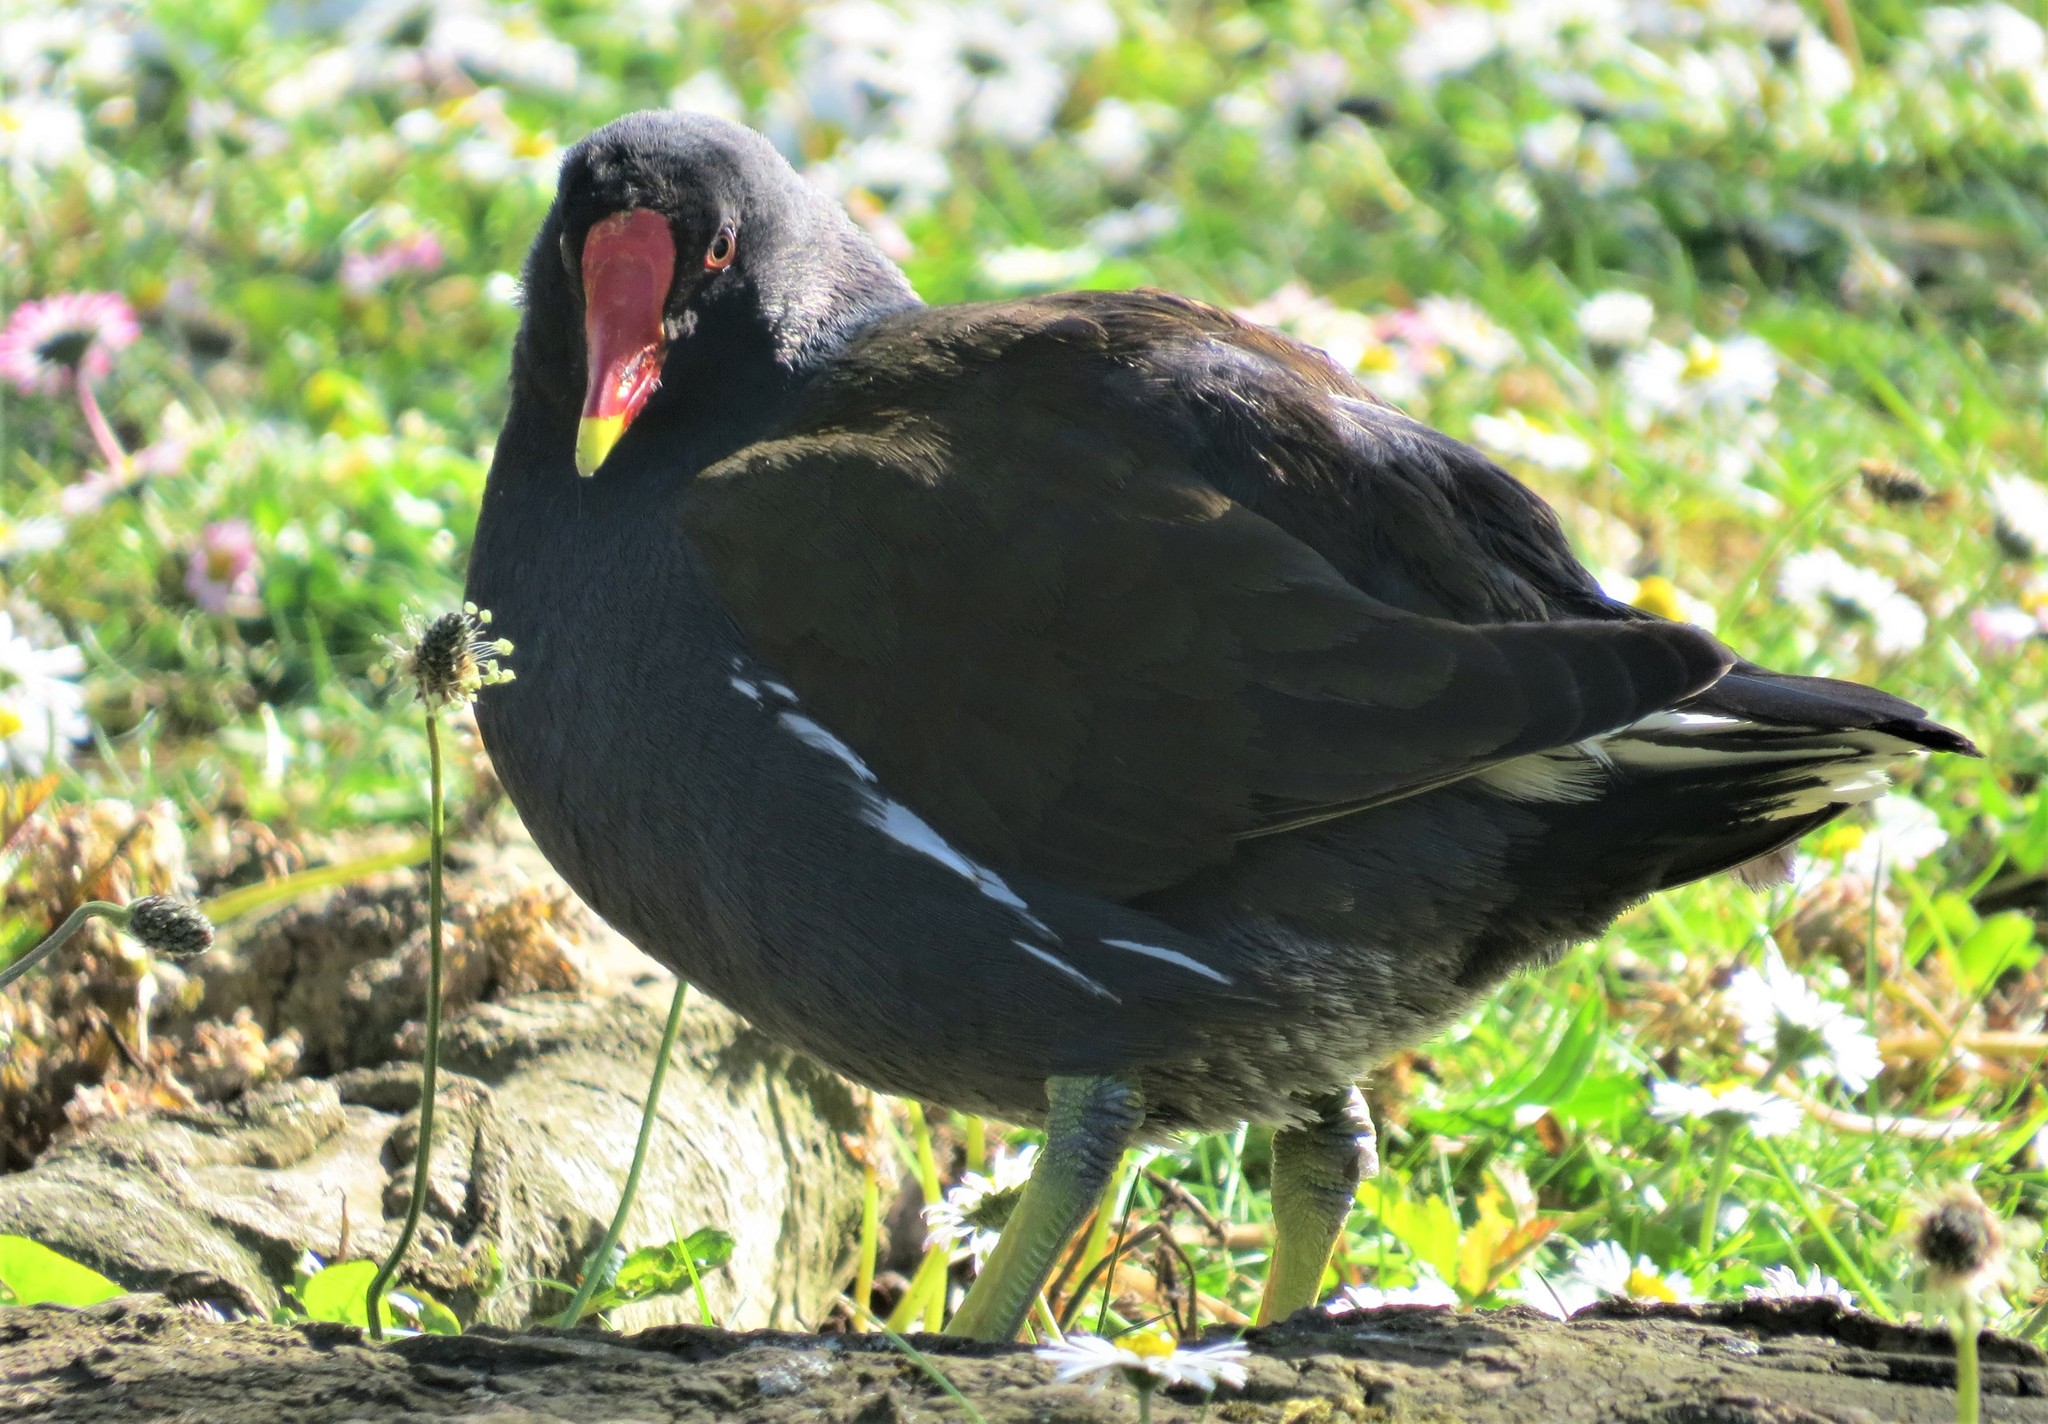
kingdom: Animalia
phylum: Chordata
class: Aves
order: Gruiformes
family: Rallidae
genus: Gallinula
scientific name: Gallinula chloropus
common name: Common moorhen
